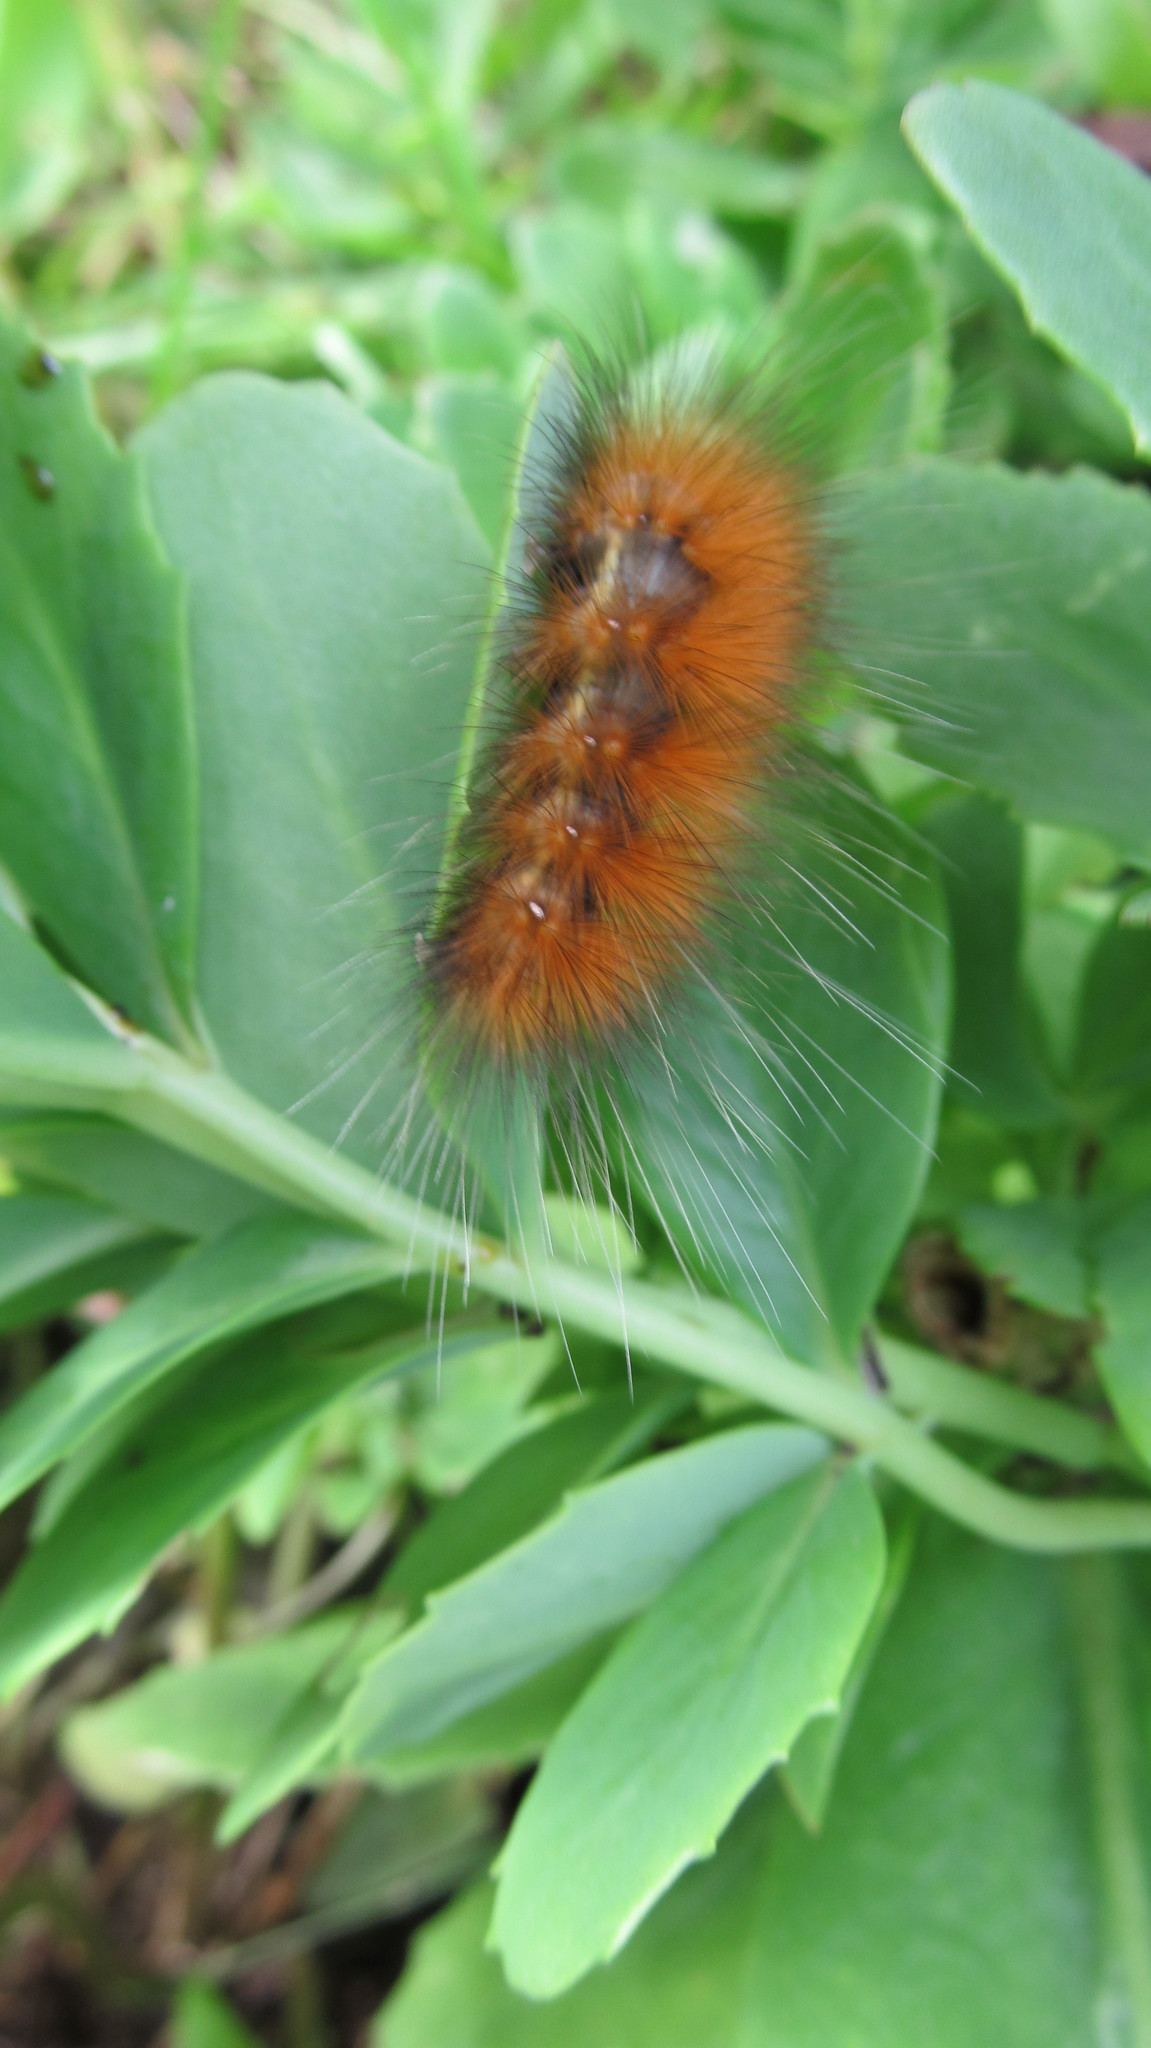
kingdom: Animalia
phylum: Arthropoda
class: Insecta
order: Lepidoptera
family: Erebidae
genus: Spilosoma
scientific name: Spilosoma virginica
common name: Virginia tiger moth
